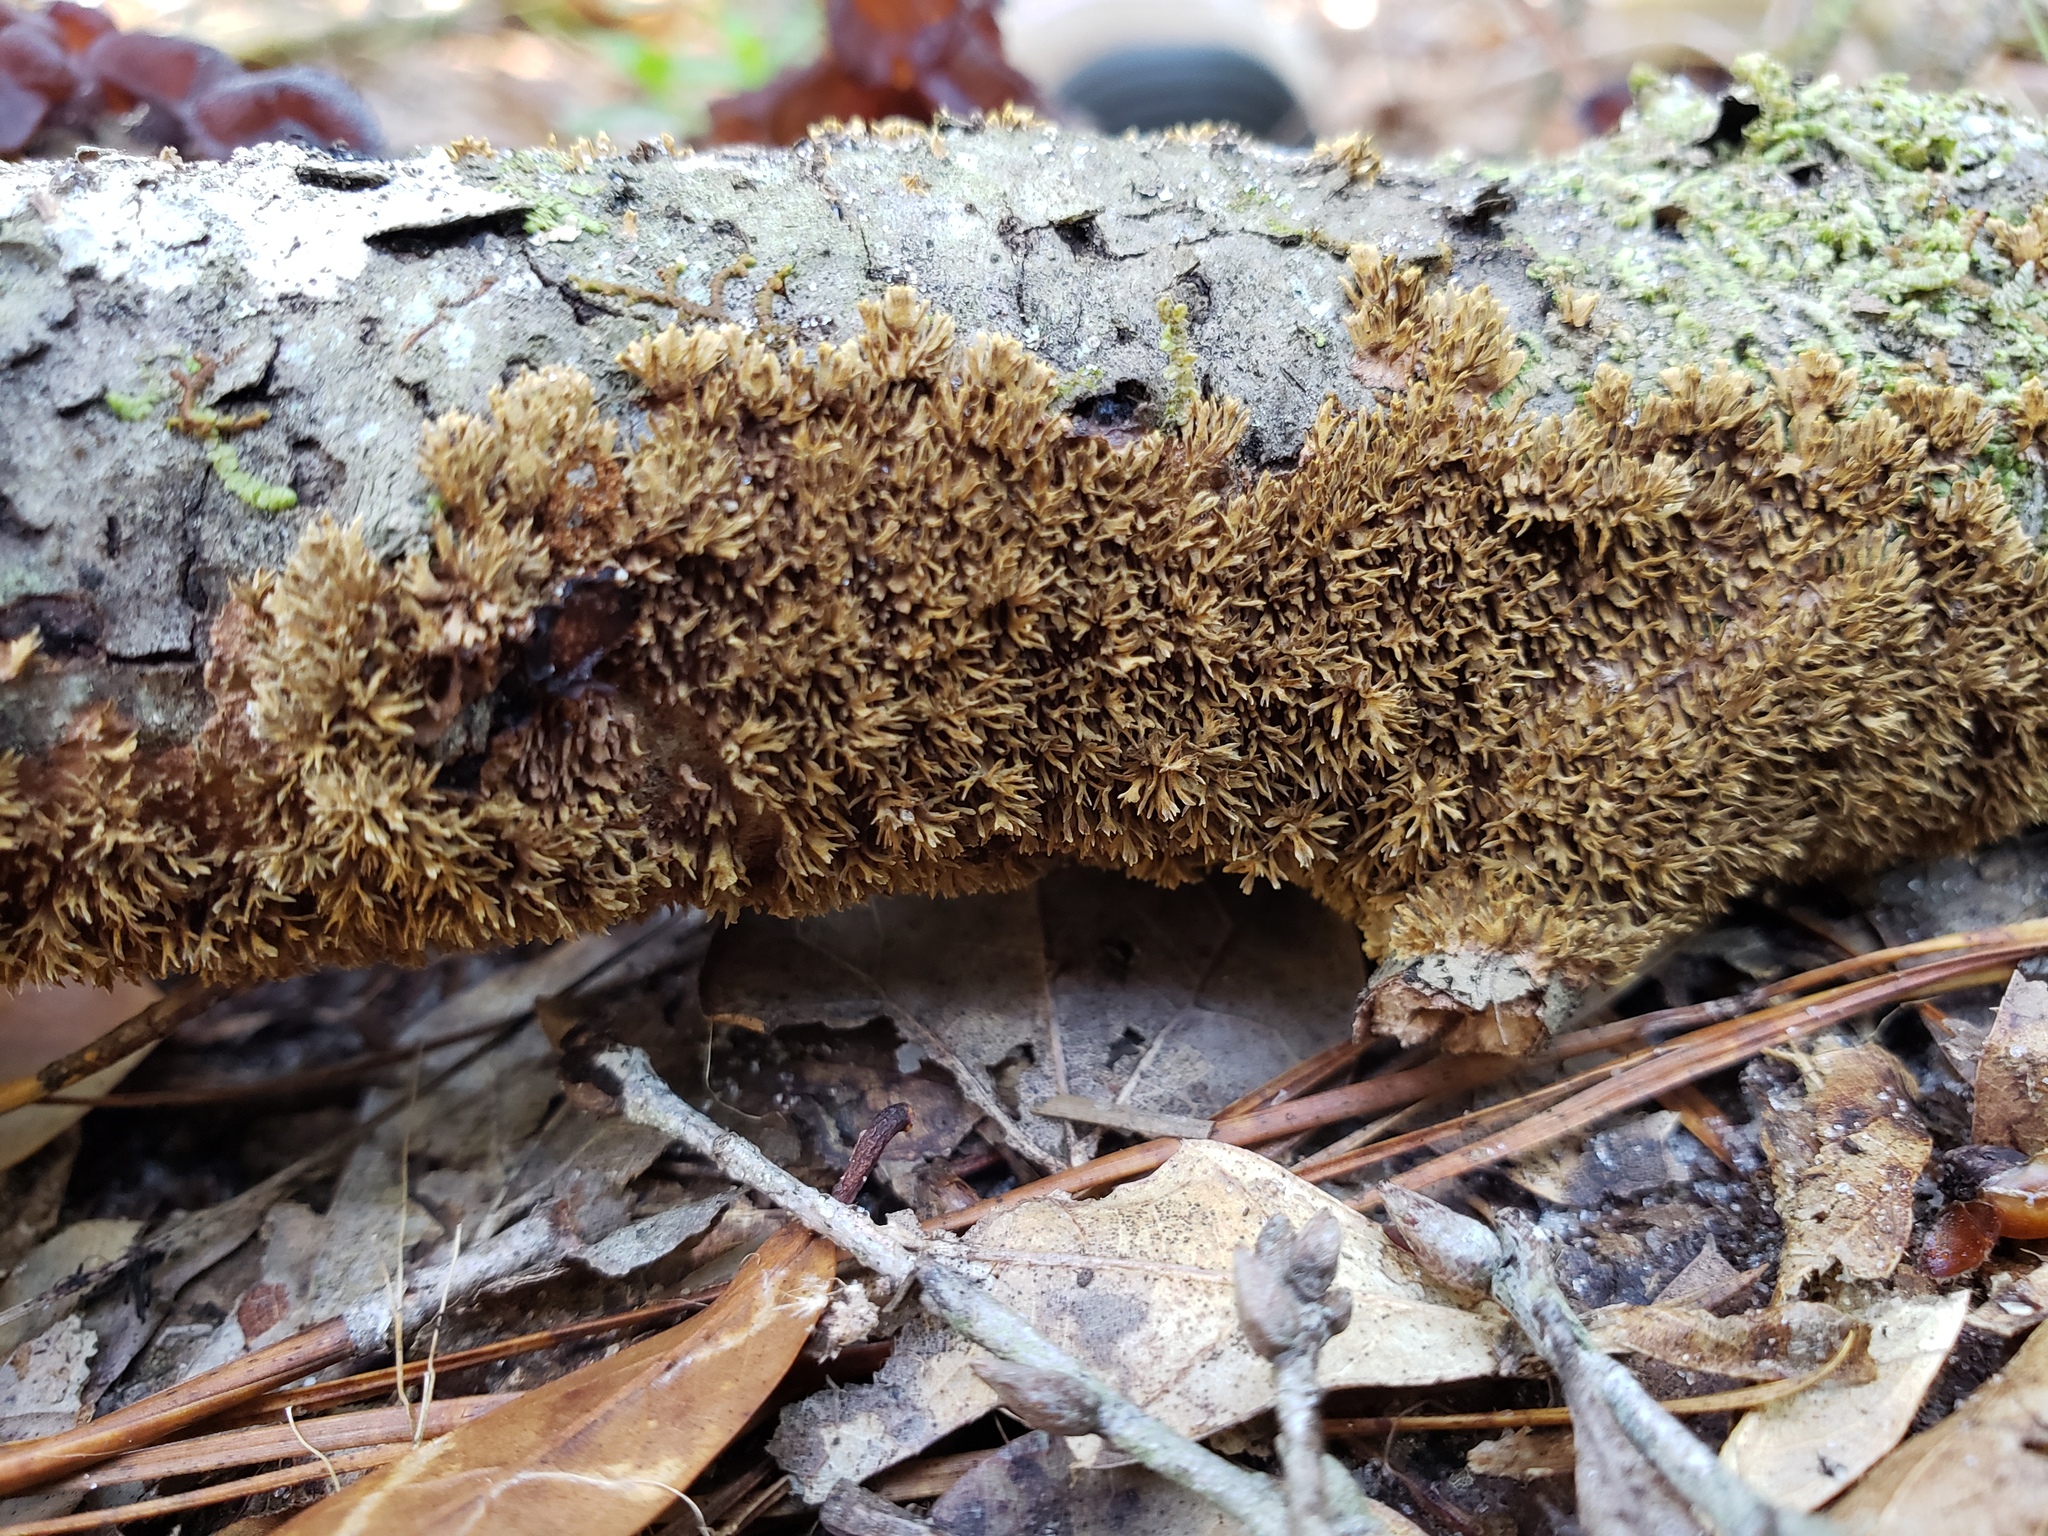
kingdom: Fungi
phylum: Basidiomycota
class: Agaricomycetes
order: Hymenochaetales
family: Hymenochaetaceae
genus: Hydnoporia
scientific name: Hydnoporia olivacea
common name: Brown-toothed crust fungus
